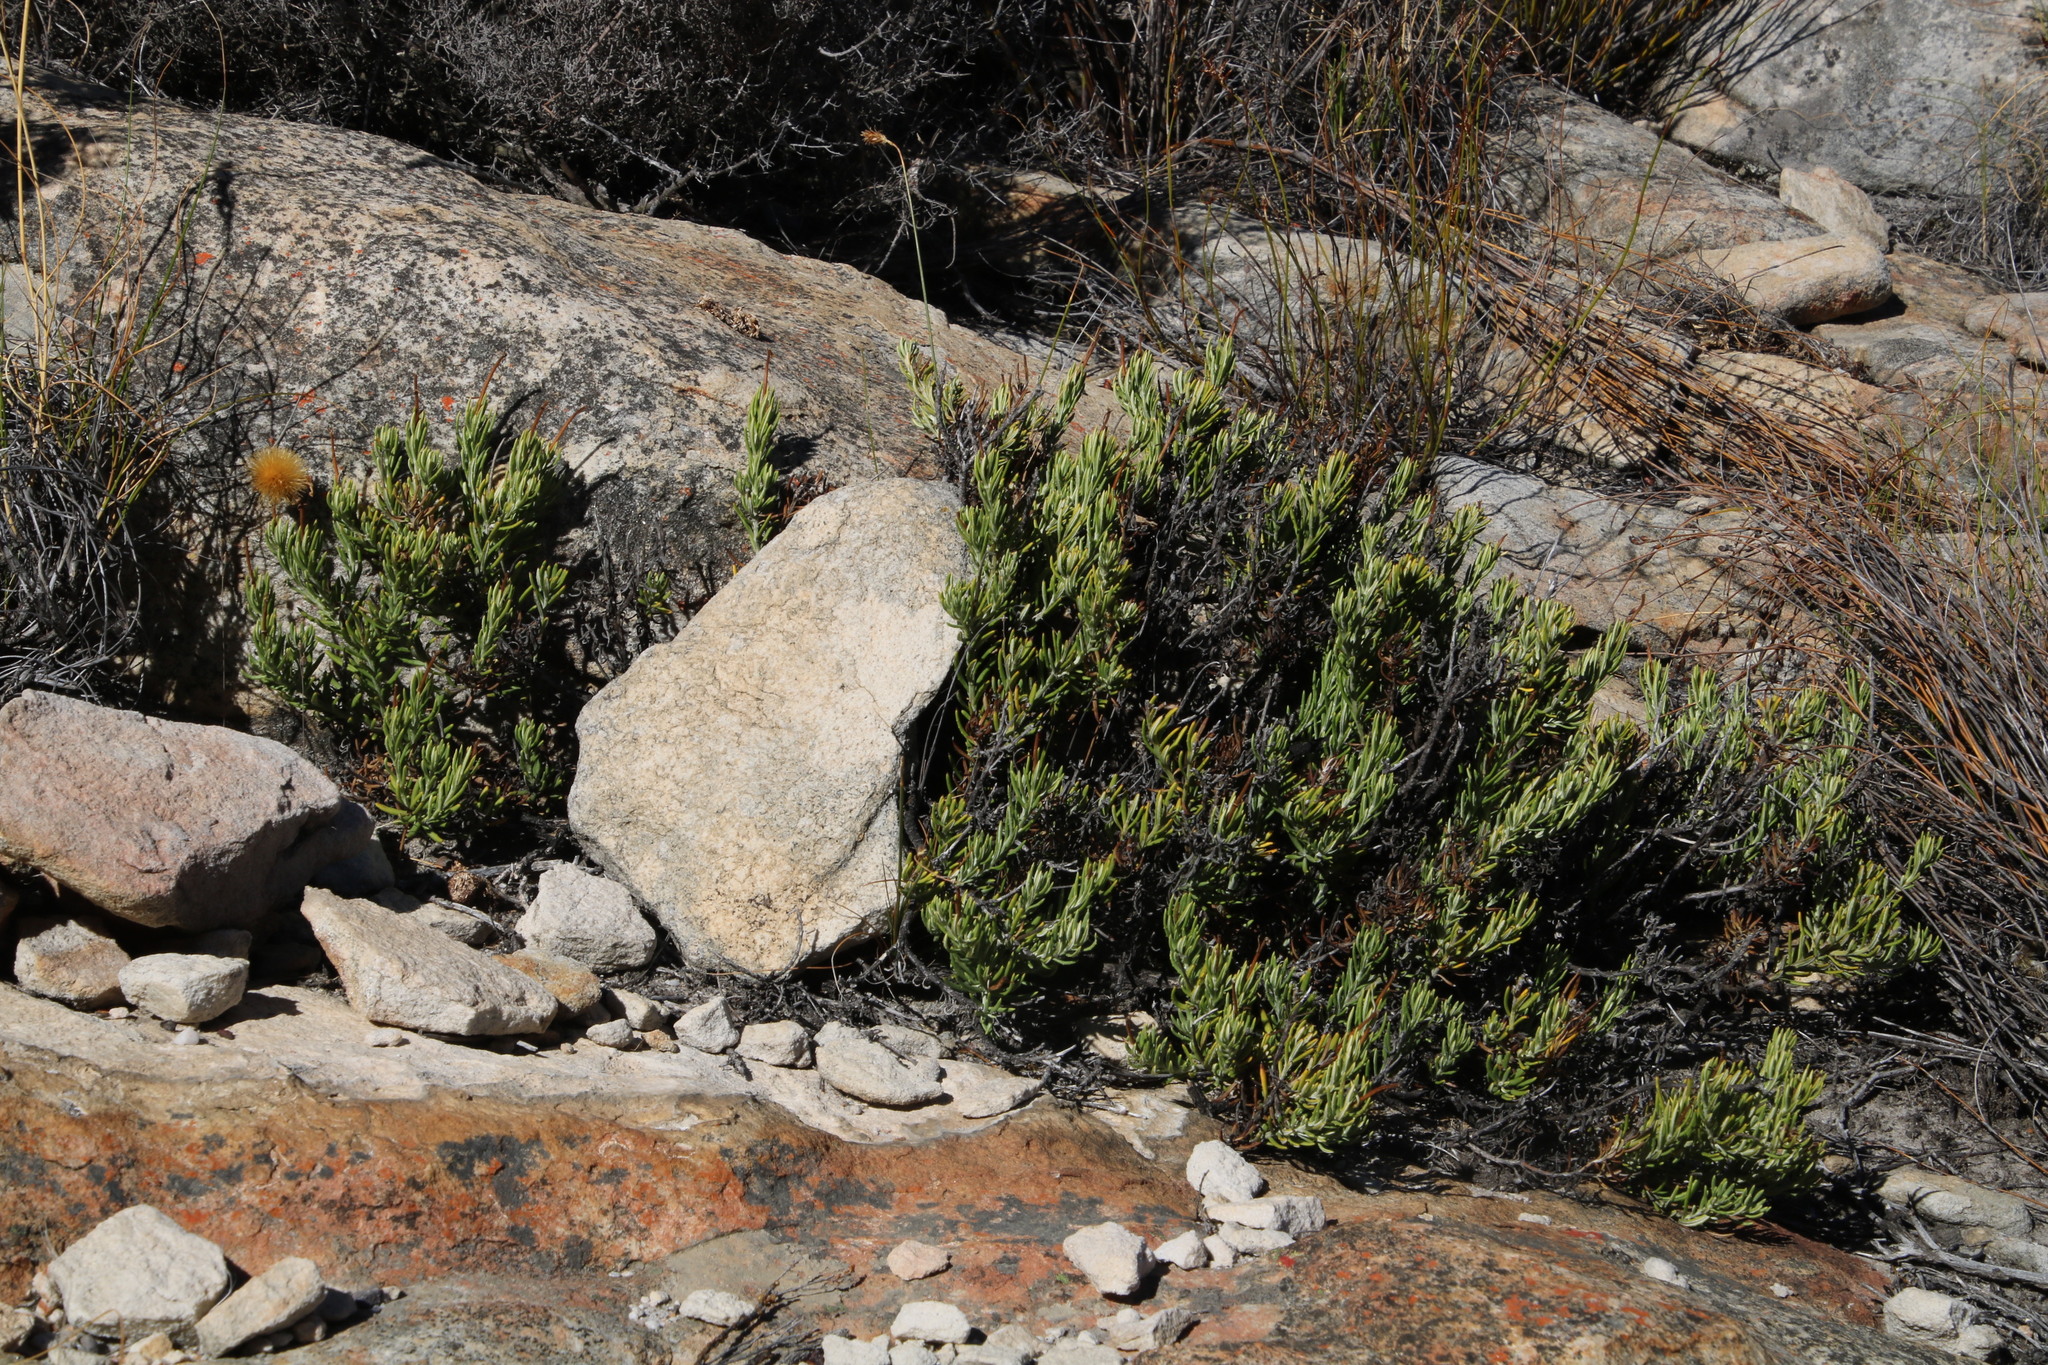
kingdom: Plantae
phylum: Tracheophyta
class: Magnoliopsida
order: Asterales
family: Asteraceae
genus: Heterolepis
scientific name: Heterolepis aliena
